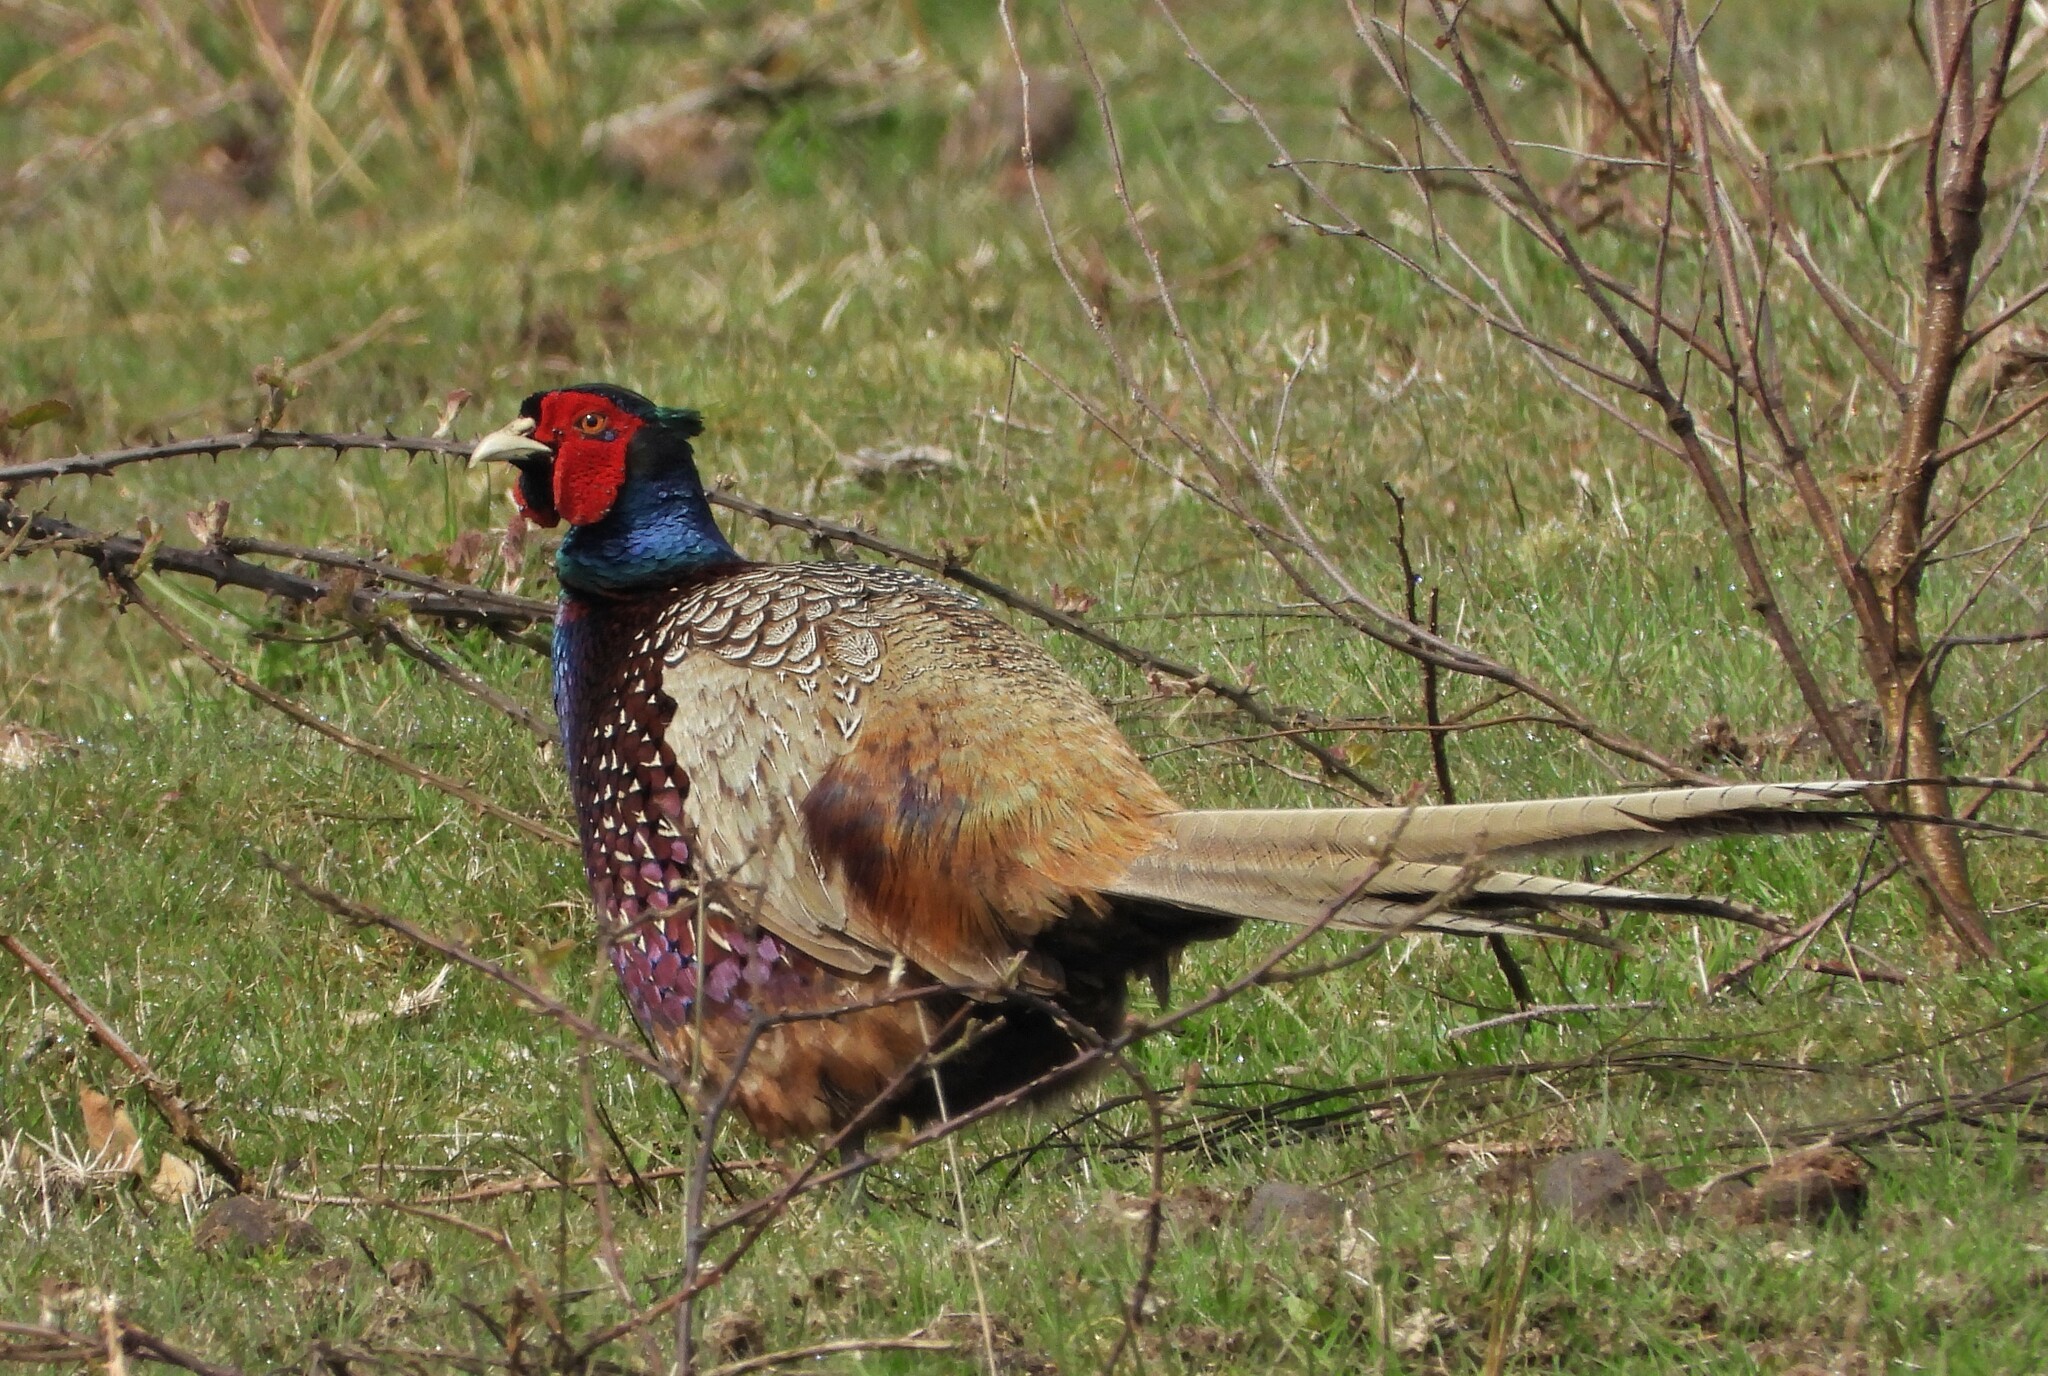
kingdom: Animalia
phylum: Chordata
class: Aves
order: Galliformes
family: Phasianidae
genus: Phasianus
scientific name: Phasianus colchicus
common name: Common pheasant
